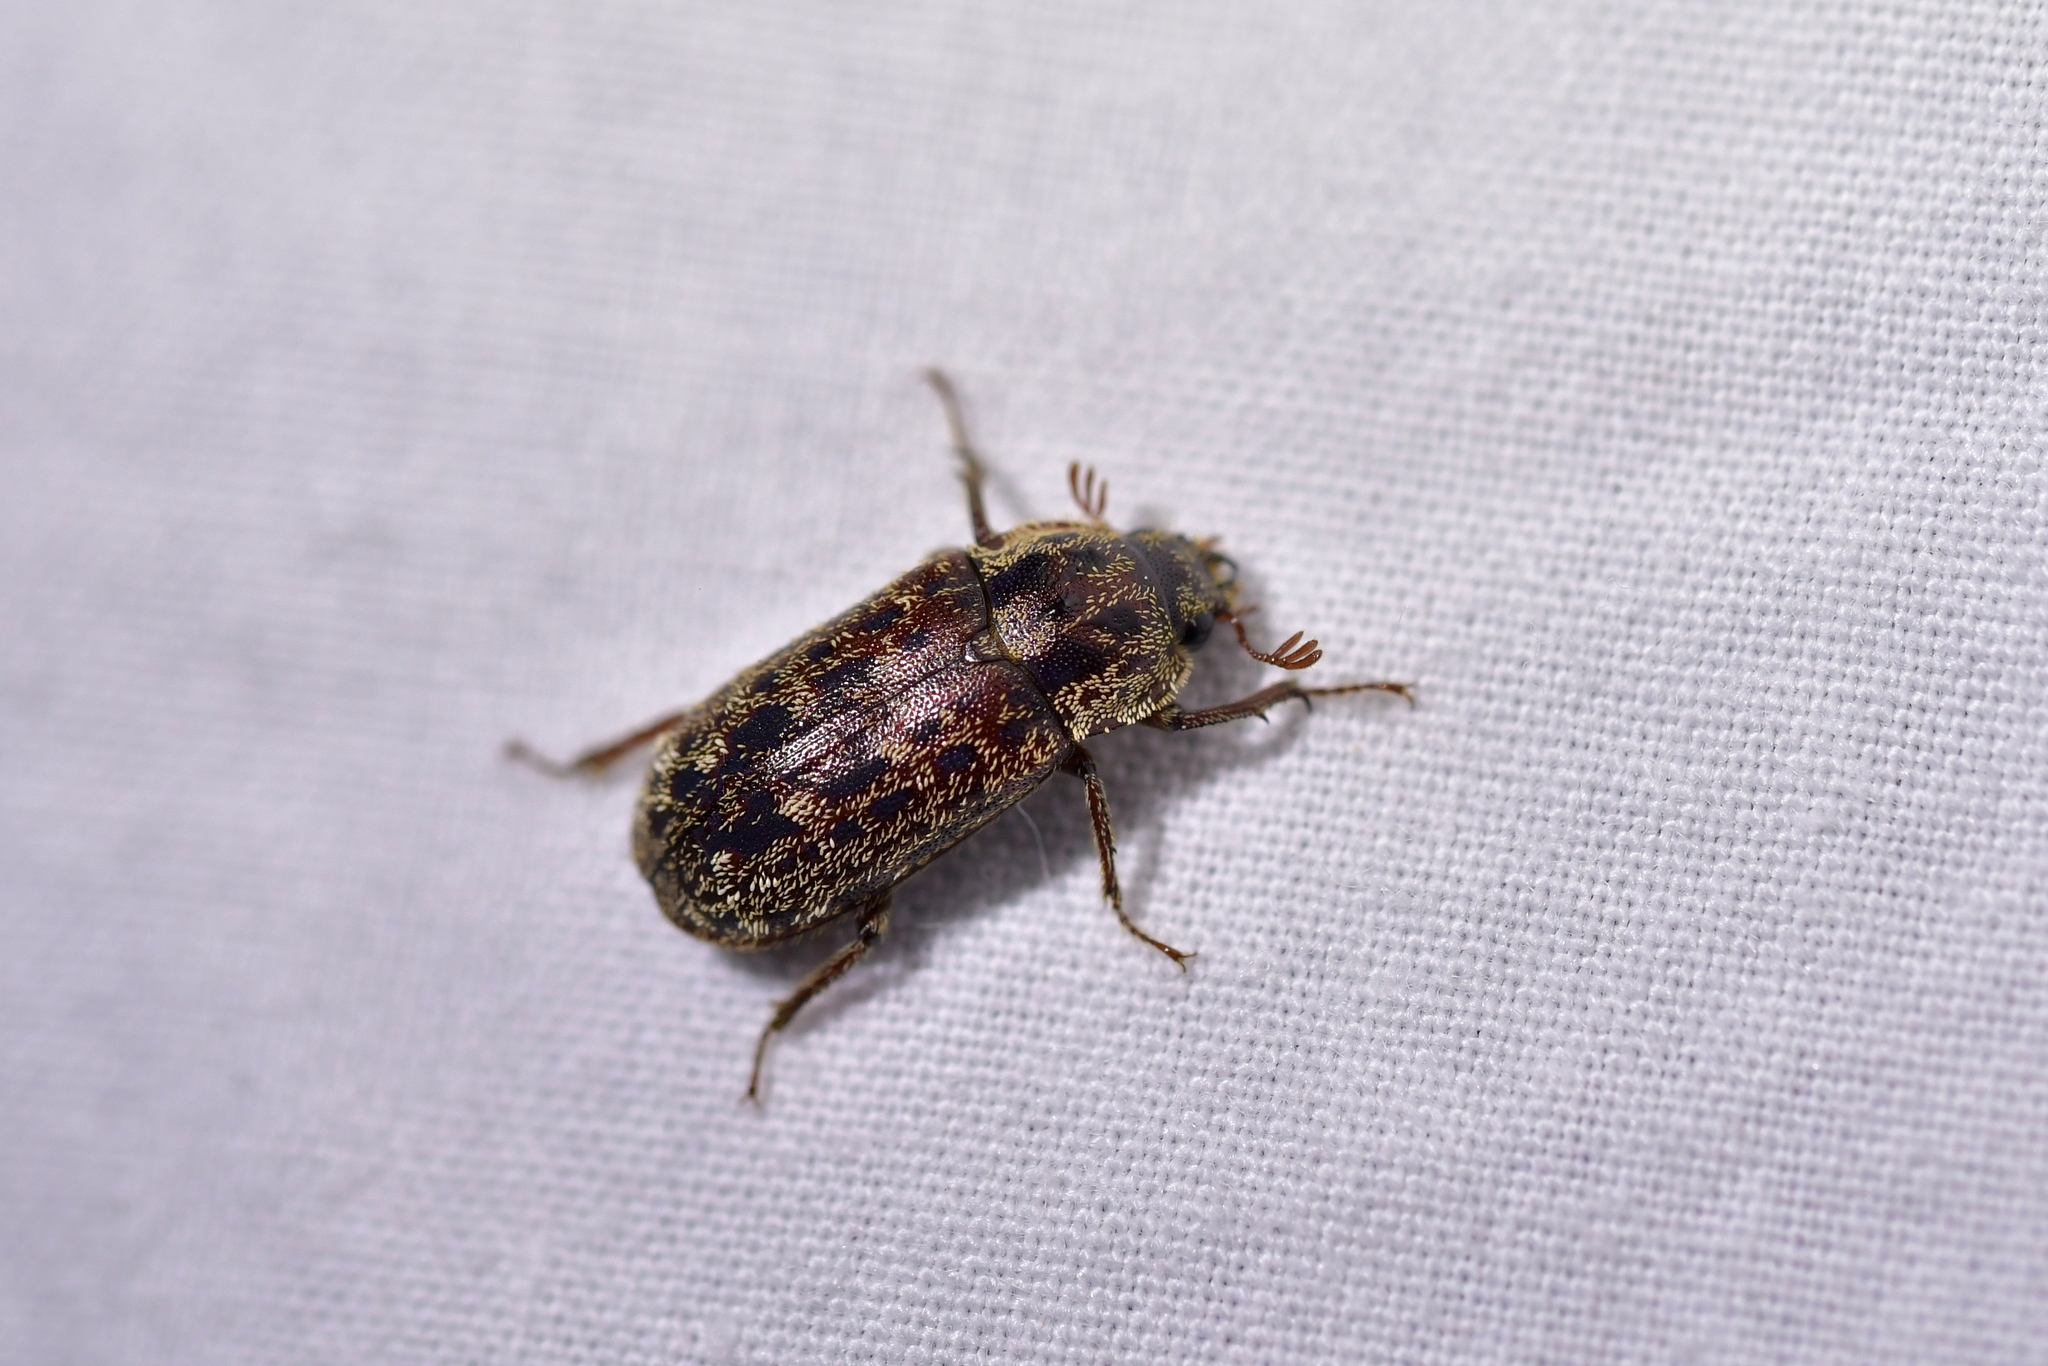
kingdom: Animalia
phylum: Arthropoda
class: Insecta
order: Coleoptera
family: Lucanidae
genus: Mitophyllus
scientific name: Mitophyllus irroratus
